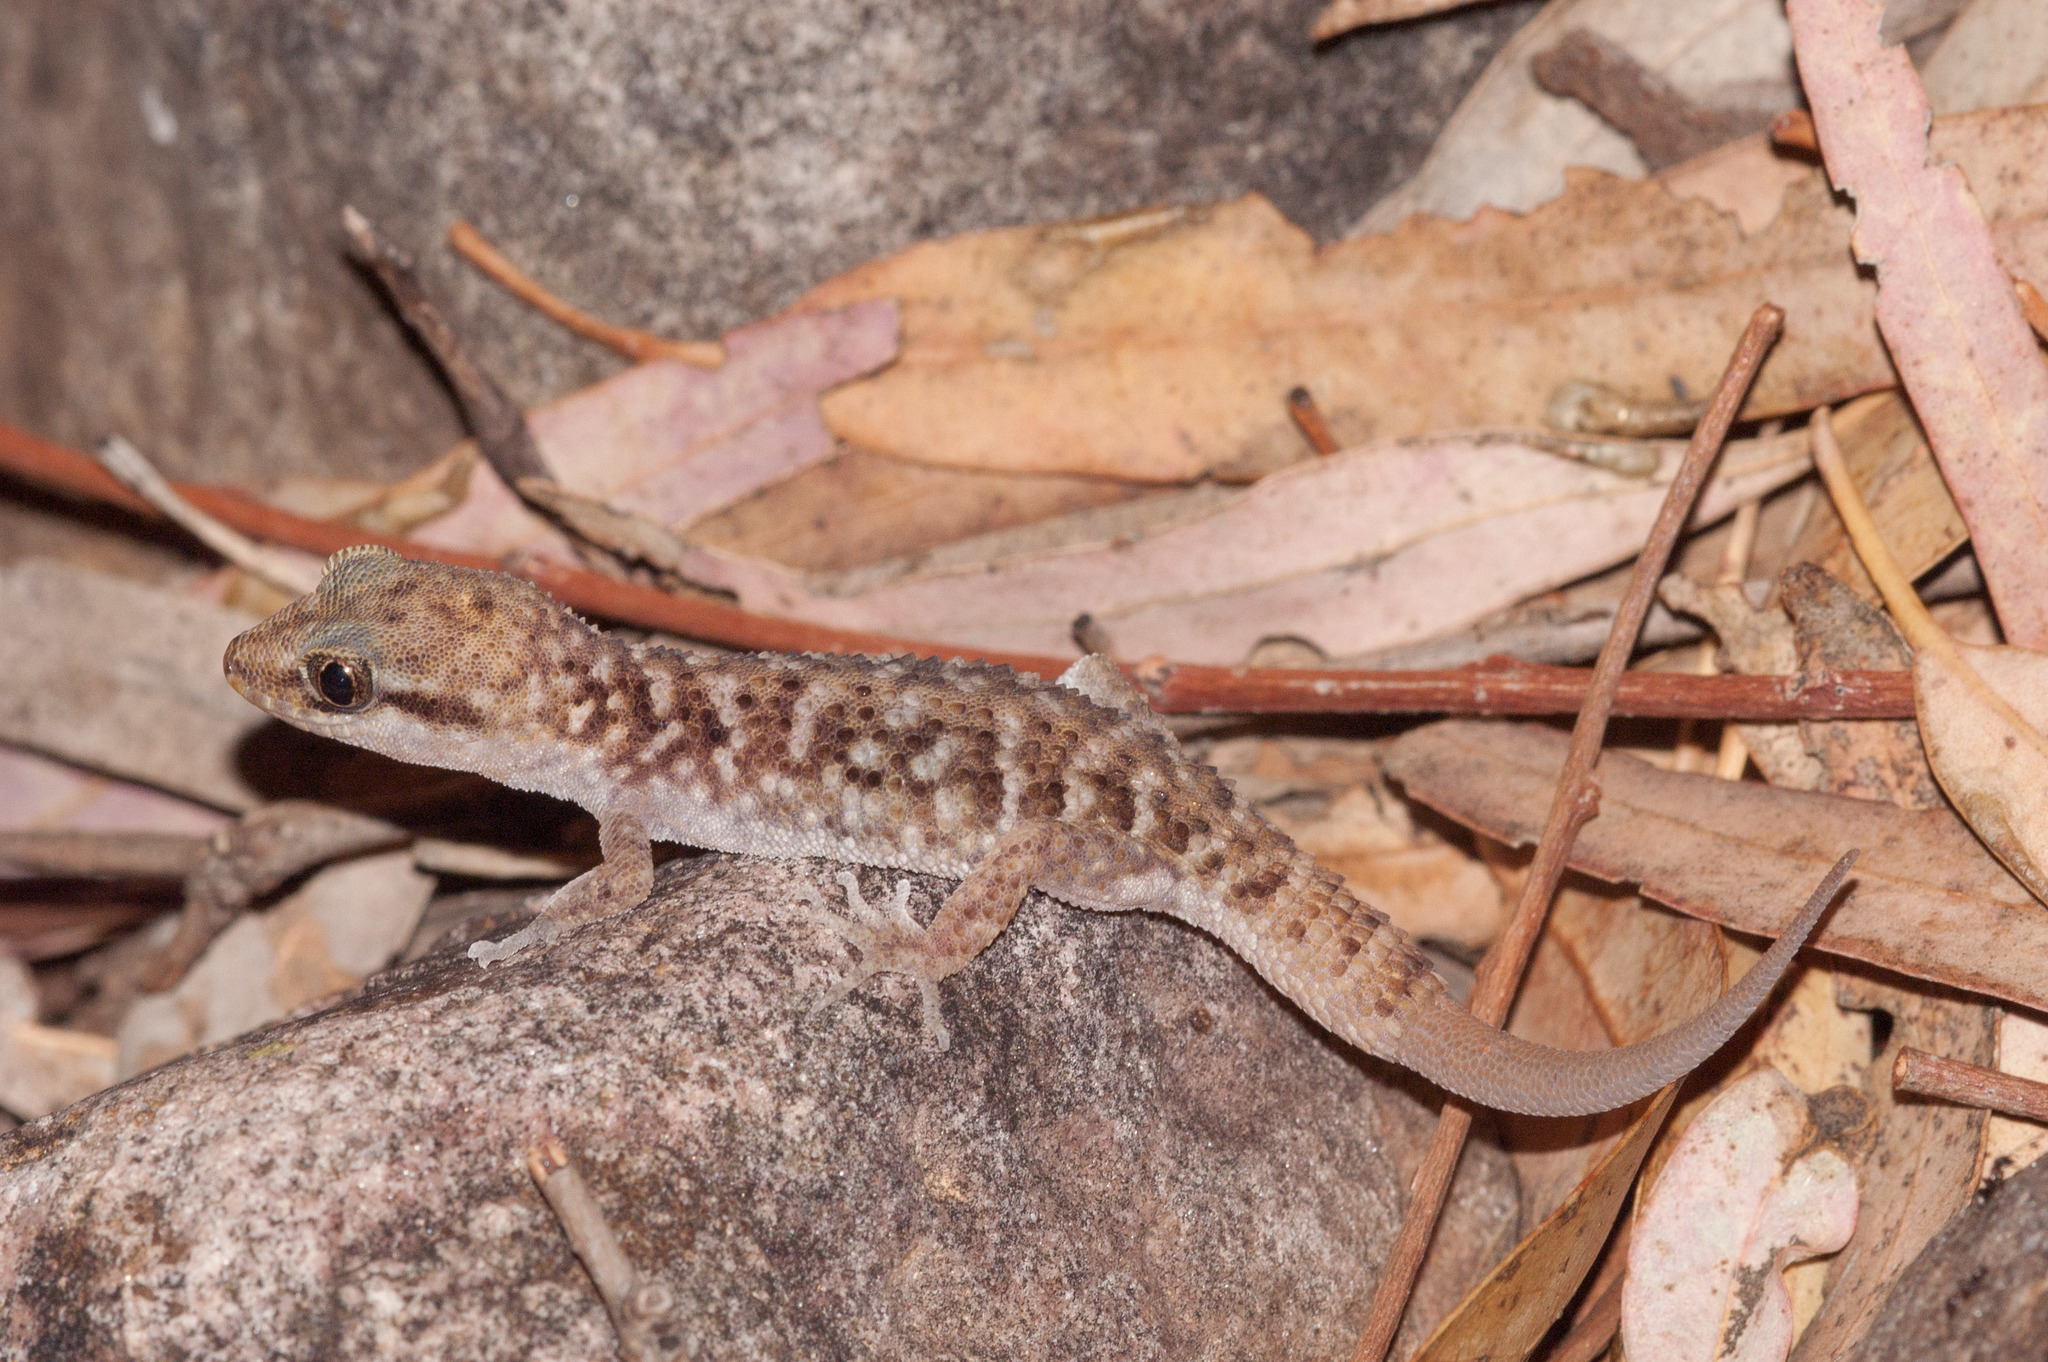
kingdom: Animalia
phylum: Chordata
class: Squamata
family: Gekkonidae
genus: Heteronotia
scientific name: Heteronotia binoei
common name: Bynoe's gecko
